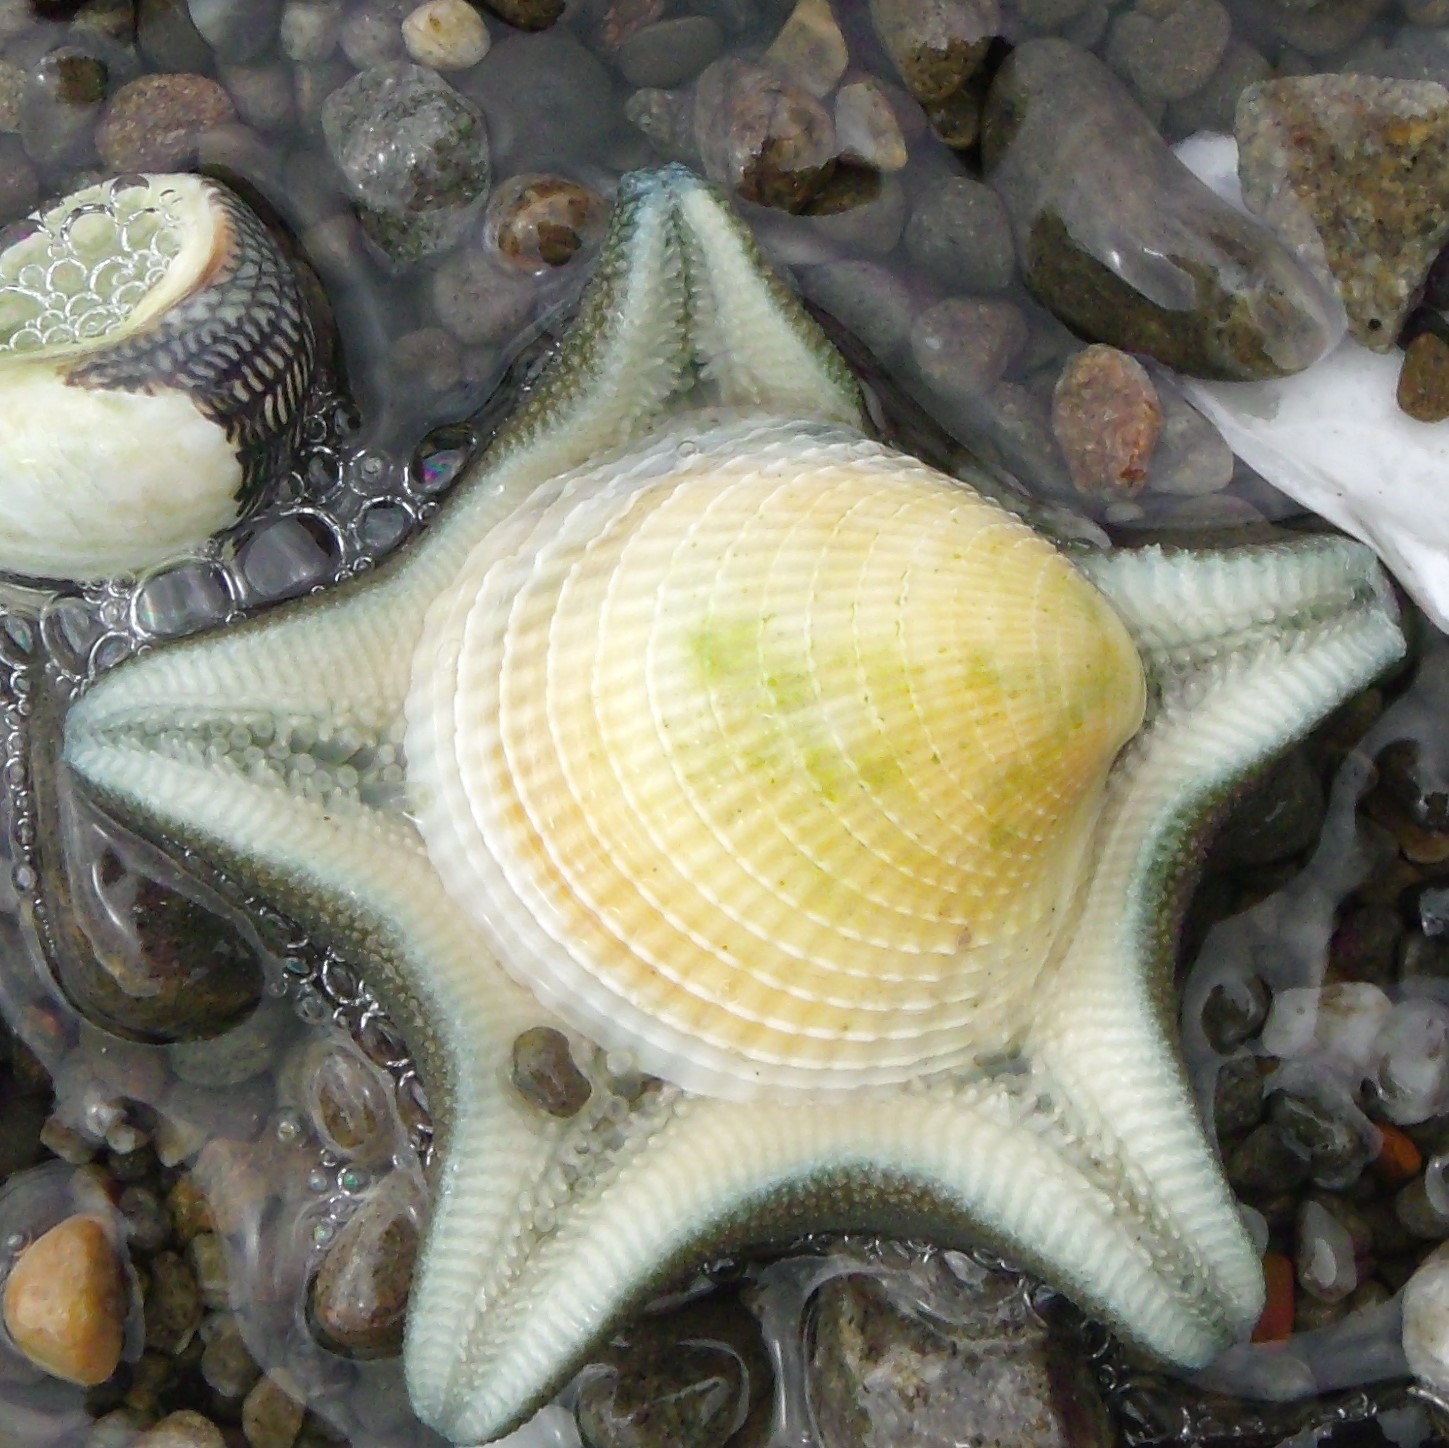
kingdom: Animalia
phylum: Echinodermata
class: Asteroidea
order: Valvatida
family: Asterinidae
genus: Patiriella
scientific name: Patiriella regularis
